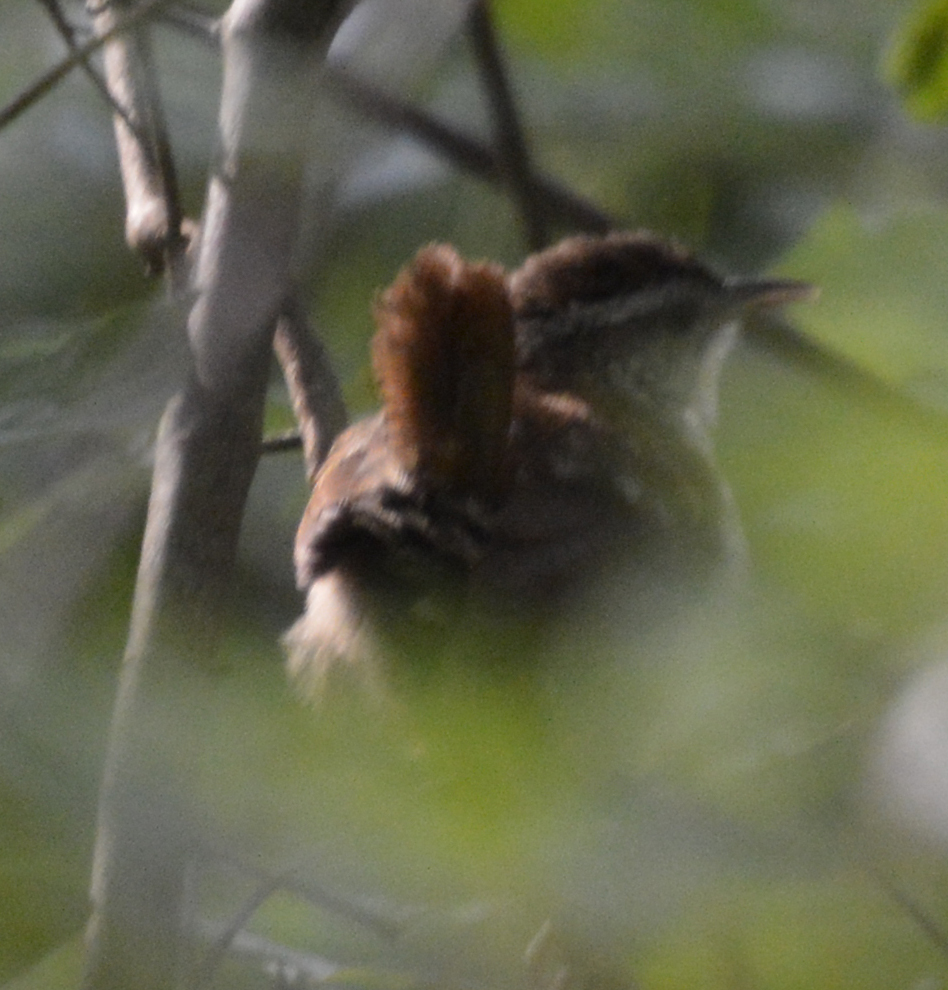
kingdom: Animalia
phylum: Chordata
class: Aves
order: Passeriformes
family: Troglodytidae
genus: Thryothorus
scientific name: Thryothorus ludovicianus
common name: Carolina wren
